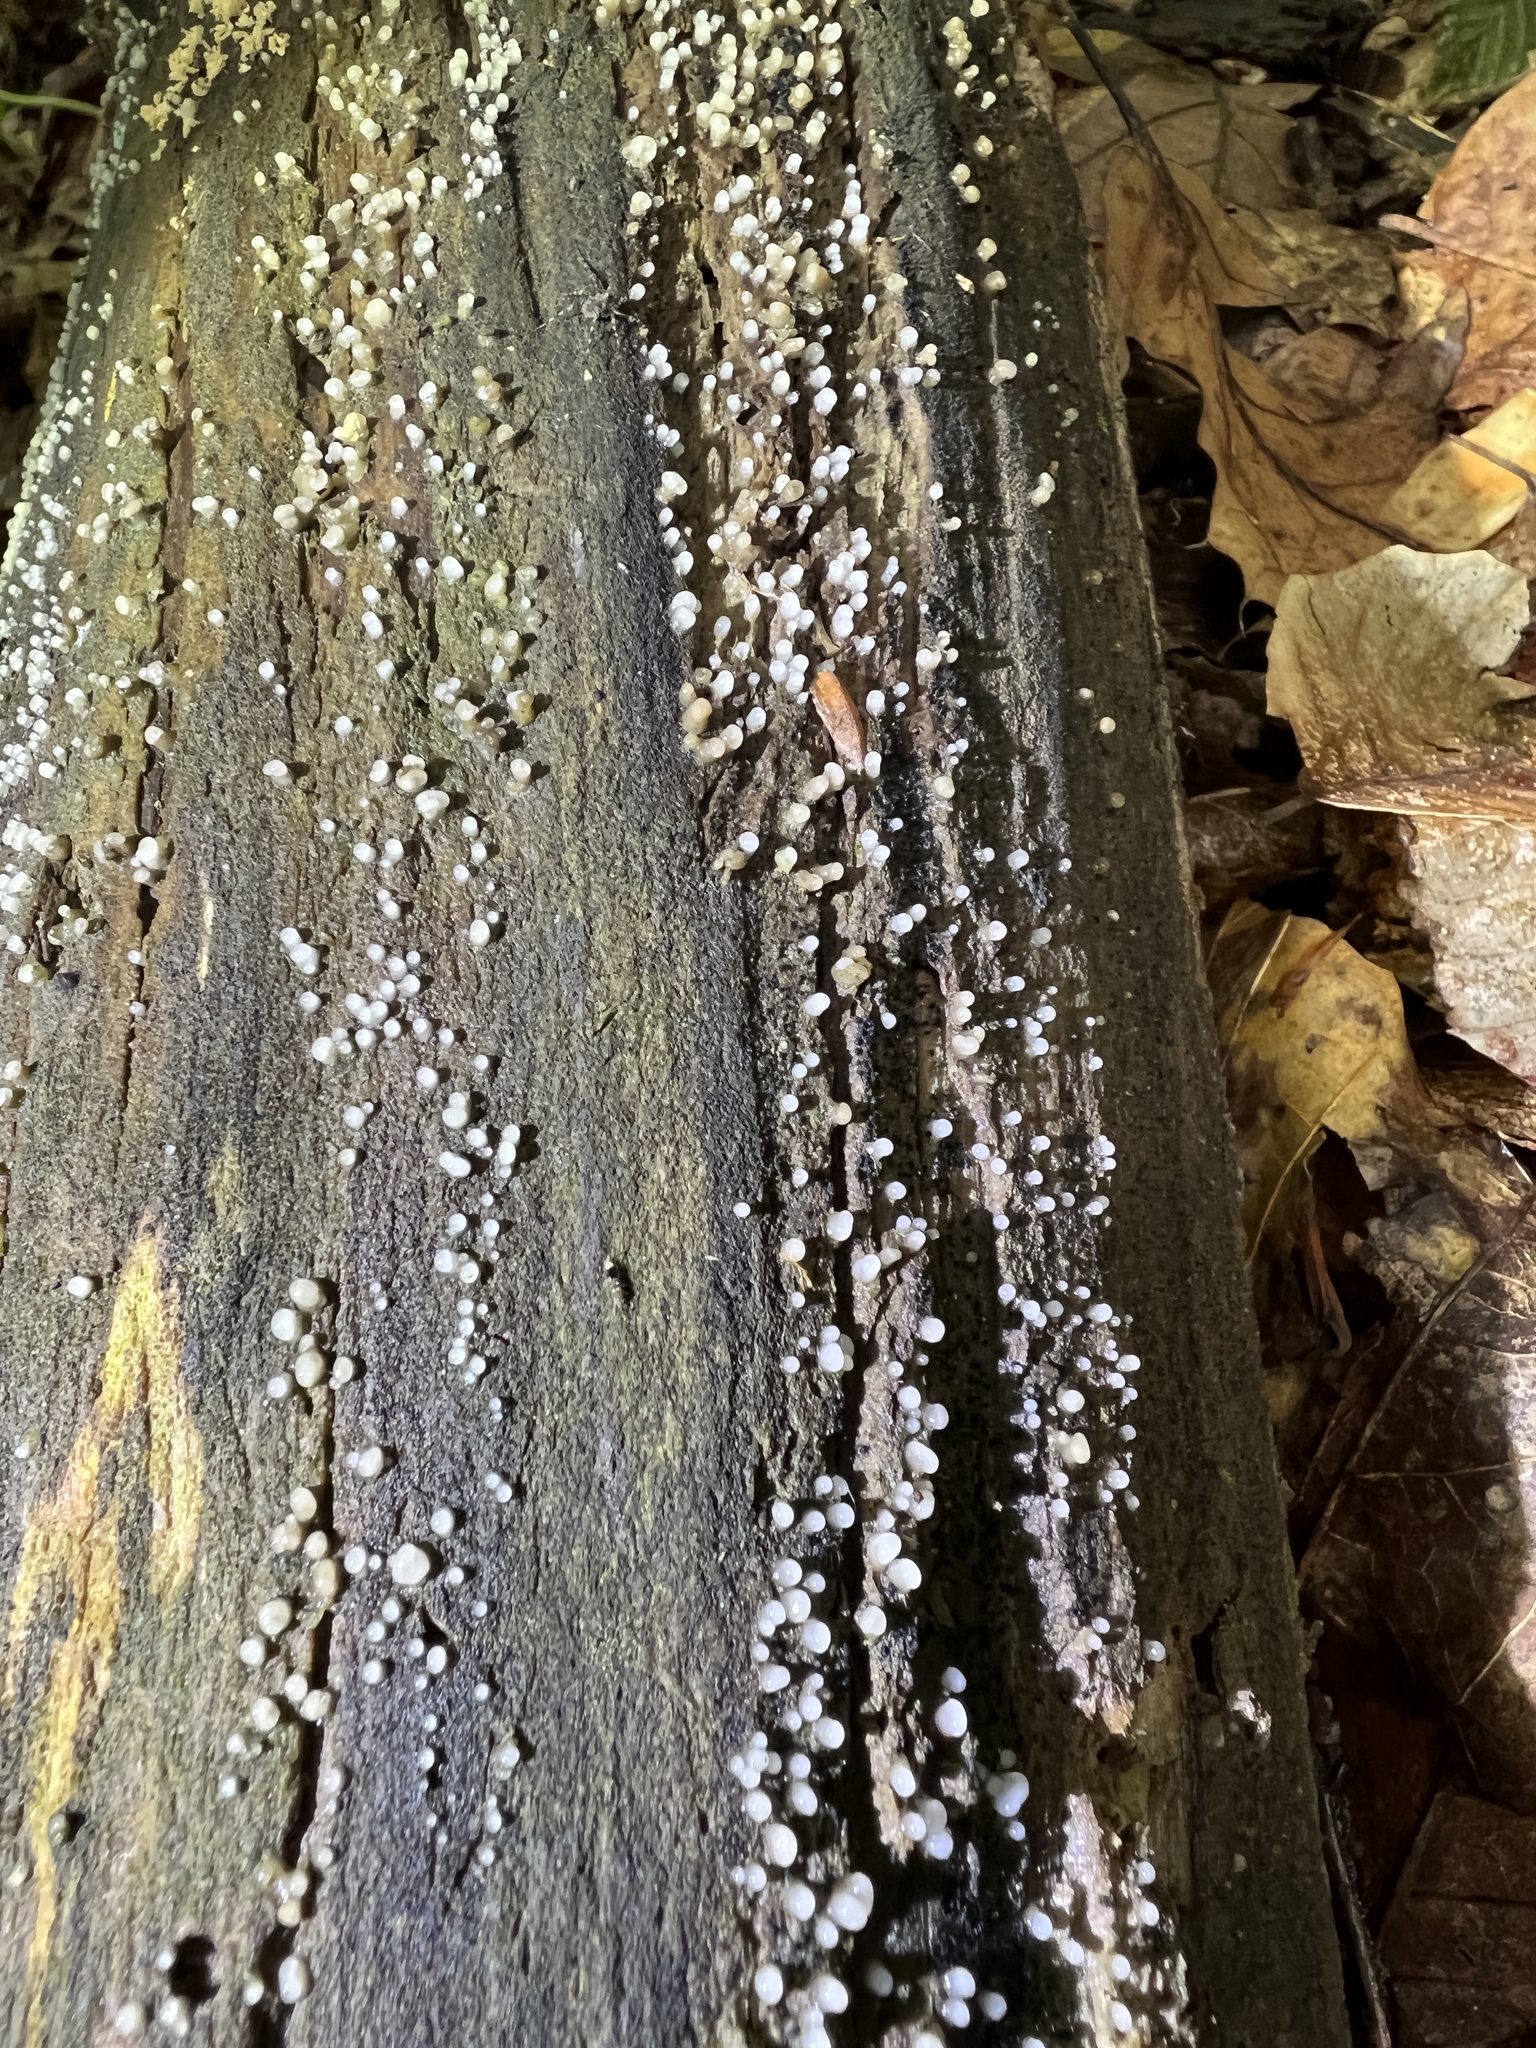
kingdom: Fungi
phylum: Basidiomycota
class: Atractiellomycetes
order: Atractiellales
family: Phleogenaceae
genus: Helicogloea
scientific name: Helicogloea compressa
